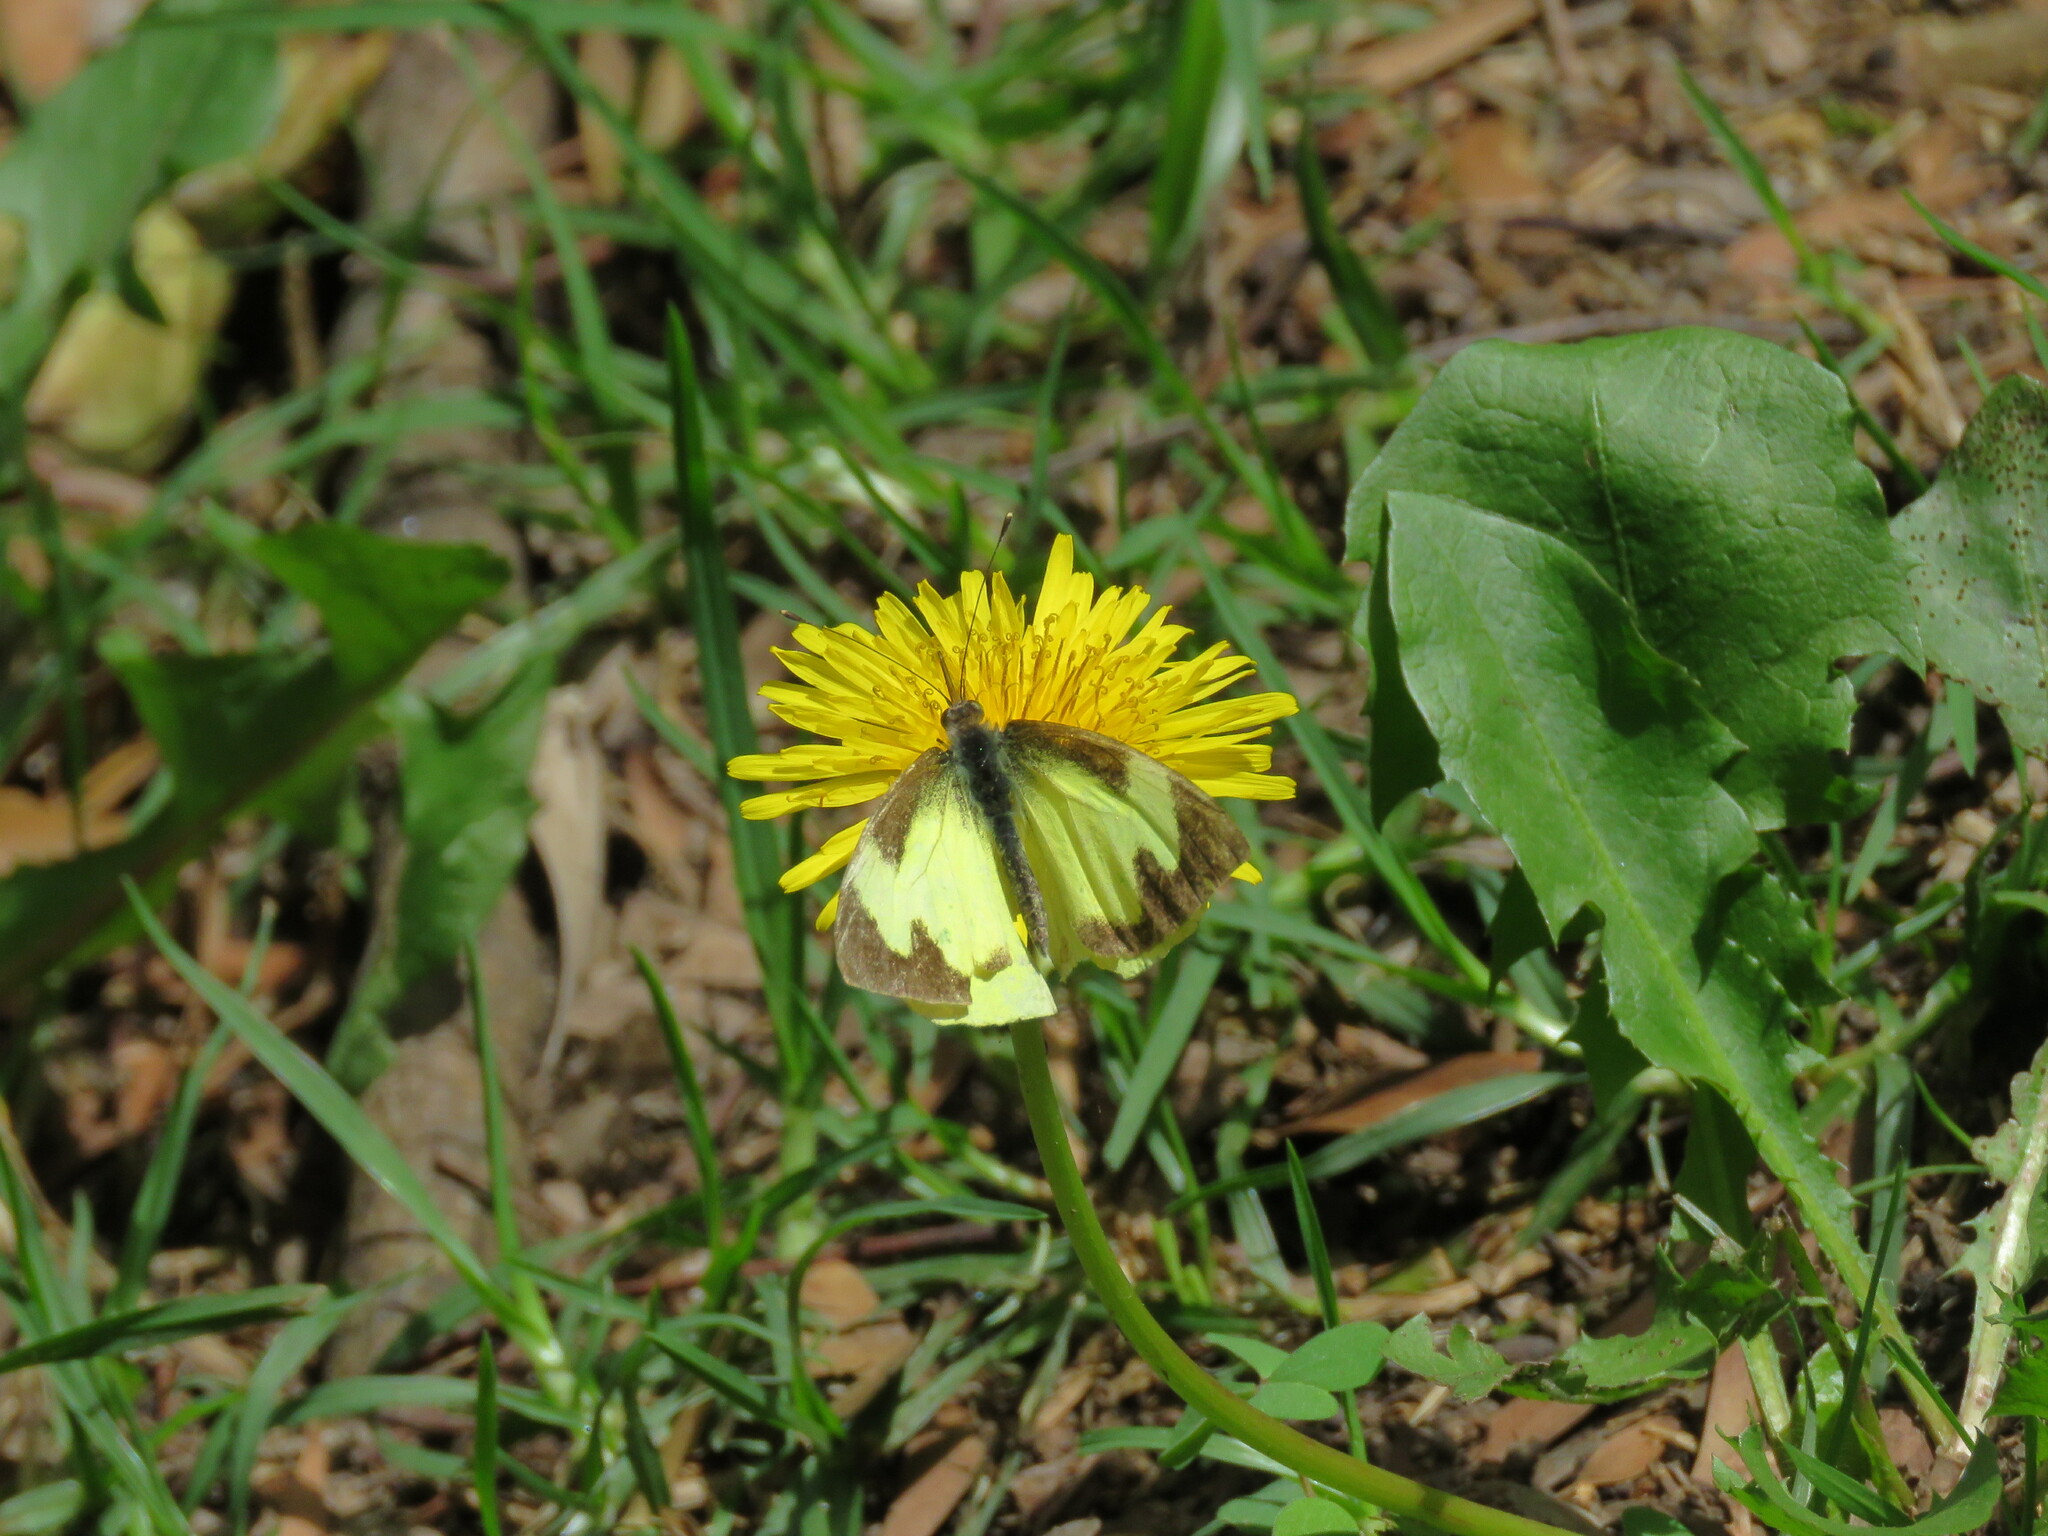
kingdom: Animalia
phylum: Arthropoda
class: Insecta
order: Lepidoptera
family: Pieridae
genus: Leptophobia
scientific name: Leptophobia eleone
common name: Silky wanderer
